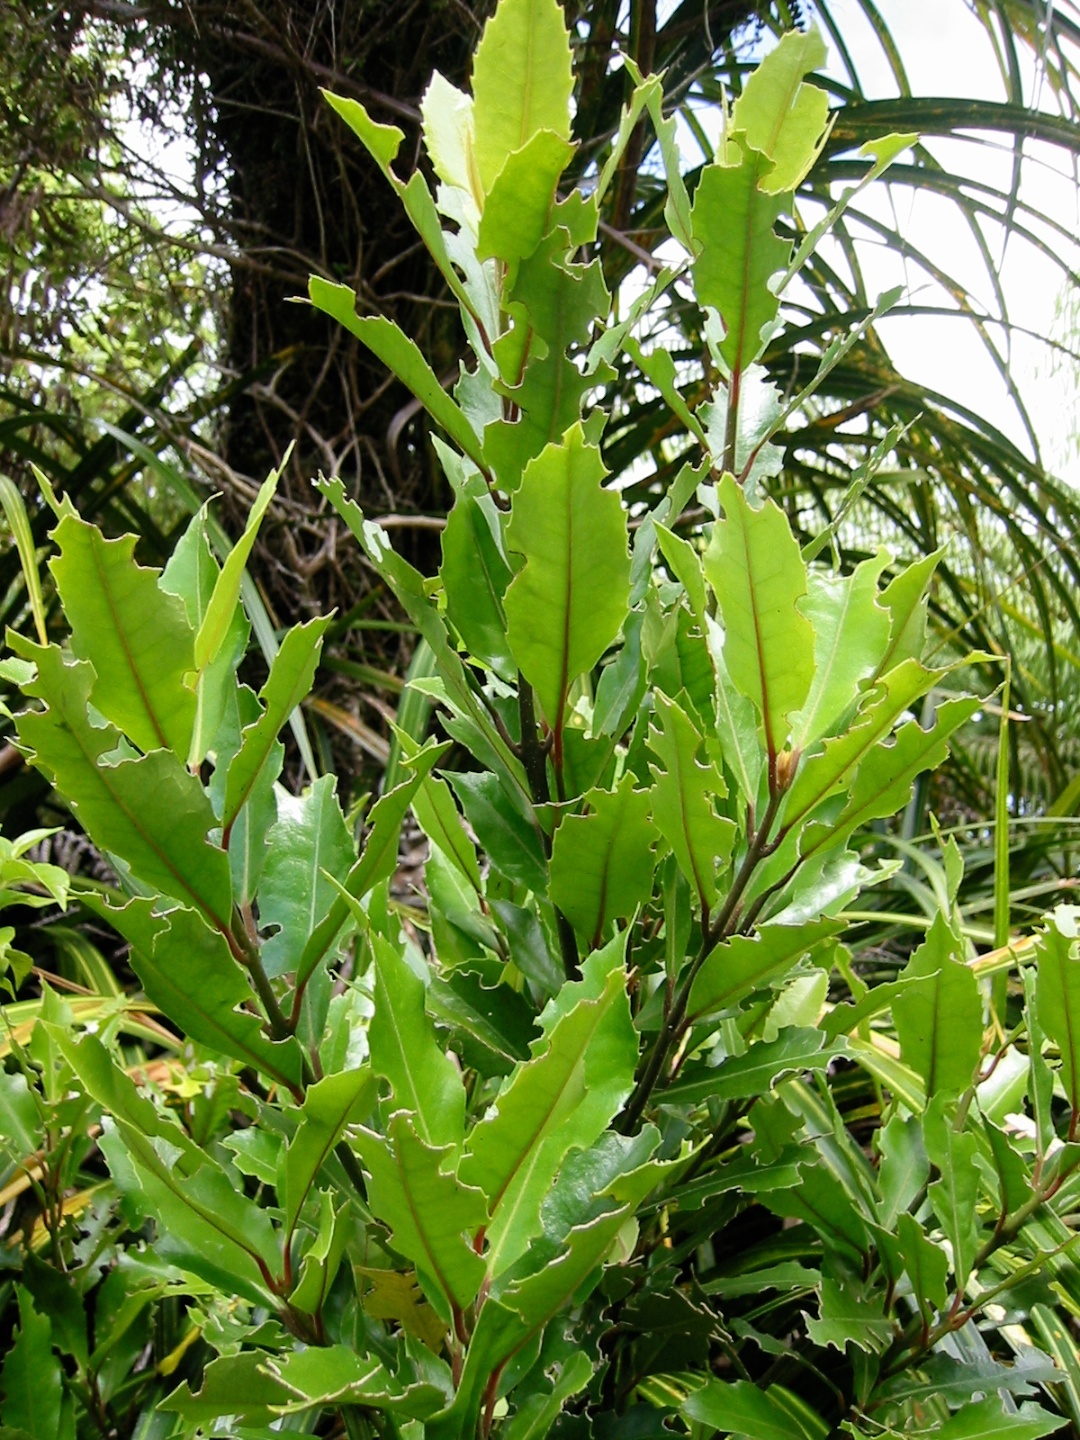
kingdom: Plantae
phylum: Tracheophyta
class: Magnoliopsida
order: Laurales
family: Monimiaceae
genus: Hedycarya
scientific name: Hedycarya arborea
